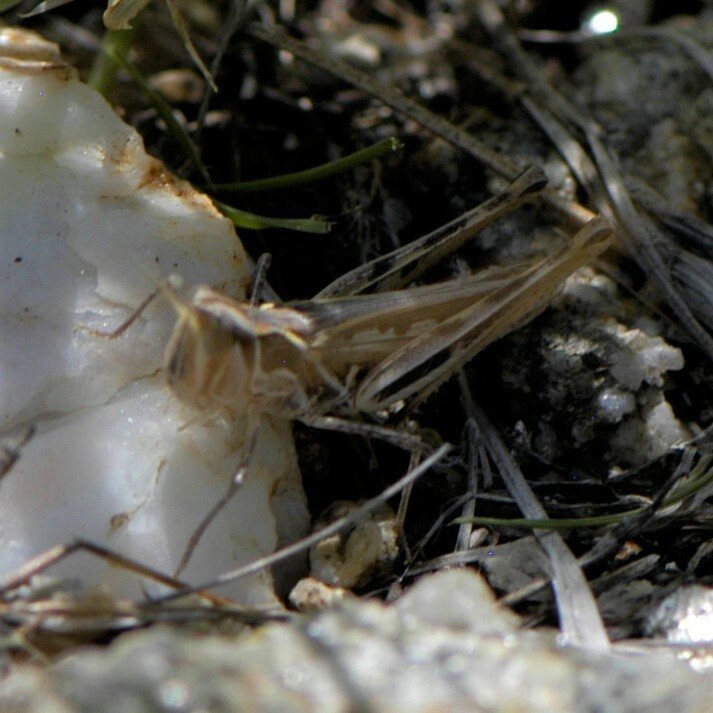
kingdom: Animalia
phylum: Arthropoda
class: Insecta
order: Orthoptera
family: Acrididae
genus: Cordillacris
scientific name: Cordillacris crenulata
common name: Crenulated grasshopper
